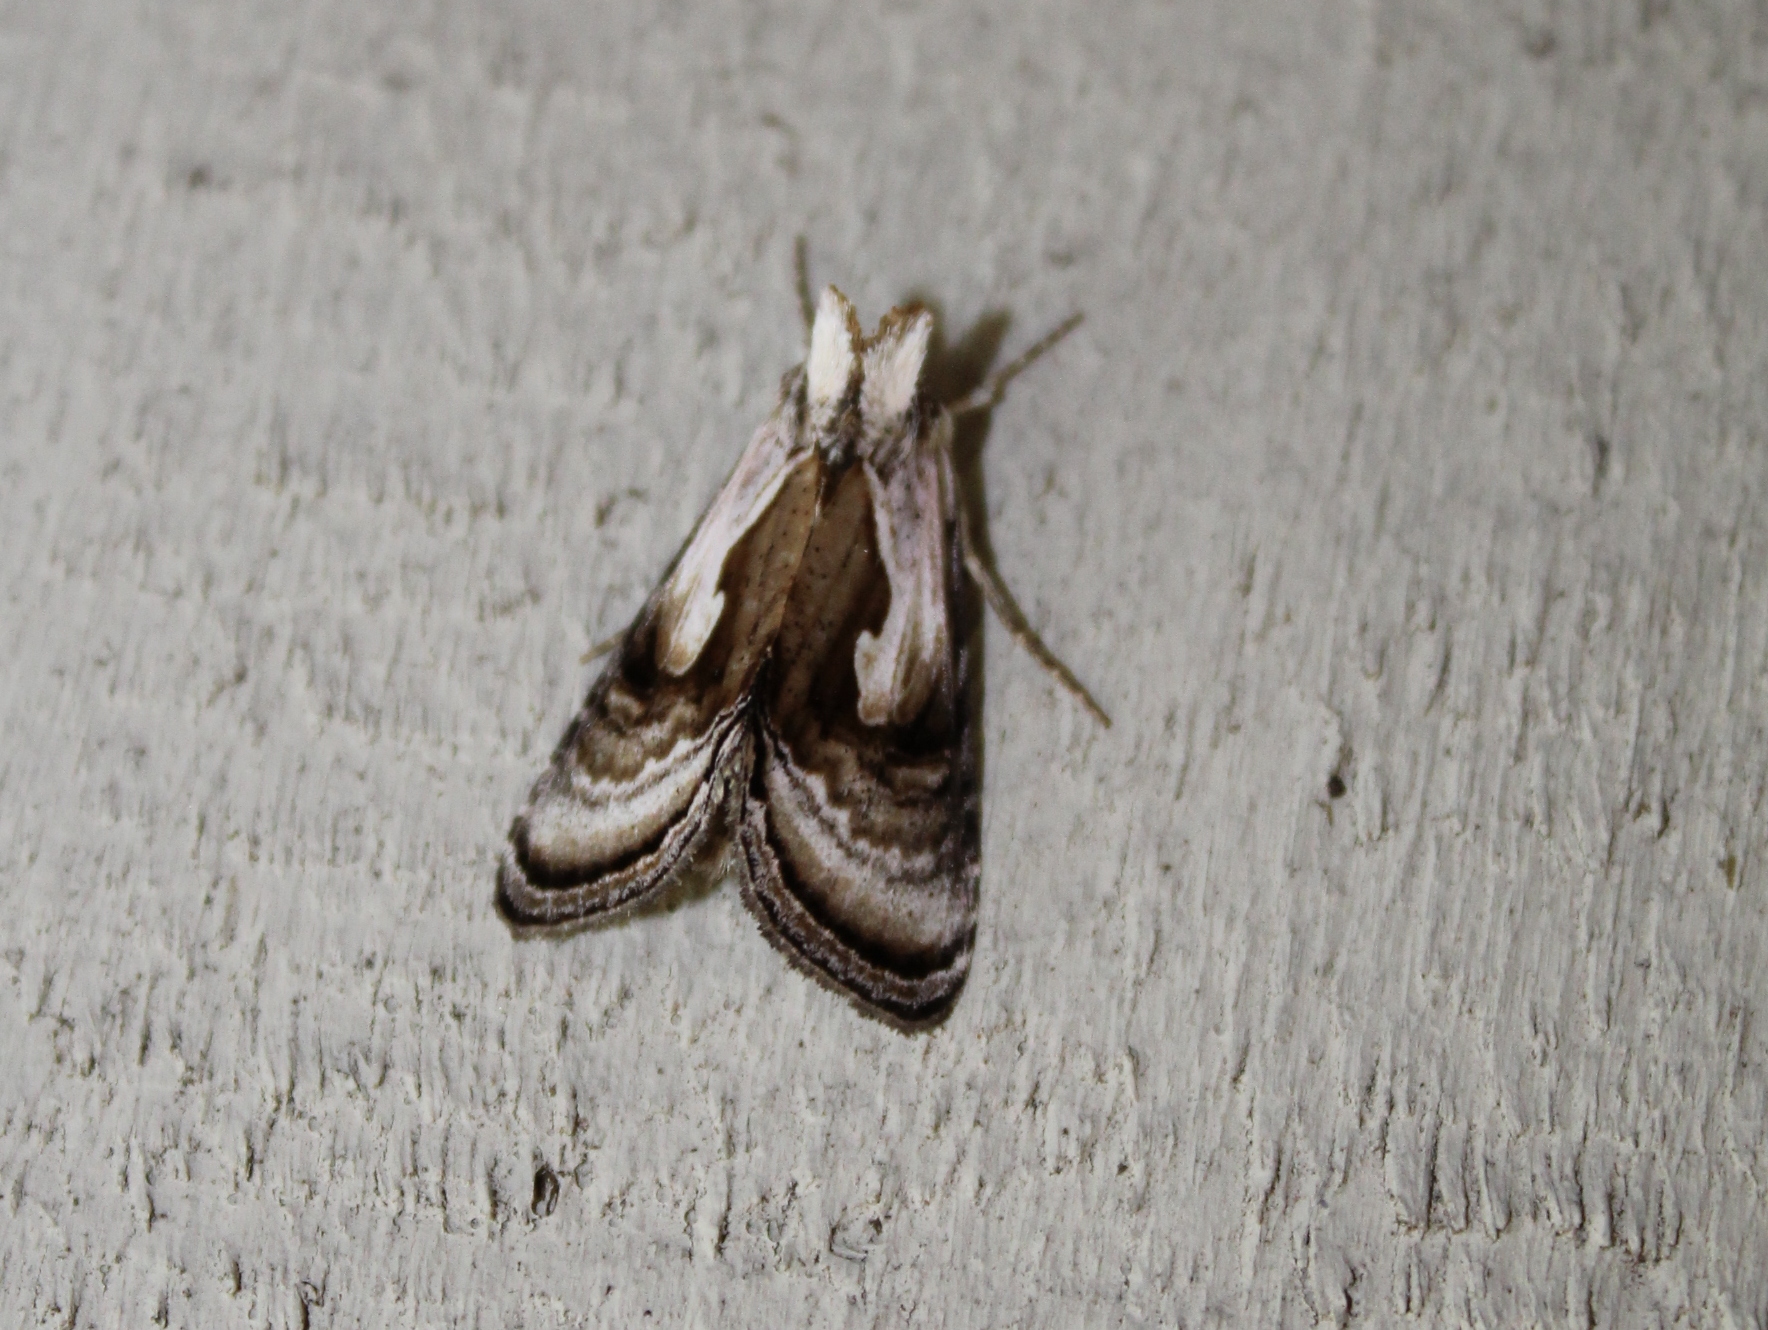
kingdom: Animalia
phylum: Arthropoda
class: Insecta
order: Lepidoptera
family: Noctuidae
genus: Chrysanympha
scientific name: Chrysanympha formosa
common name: Formosa looper moth
